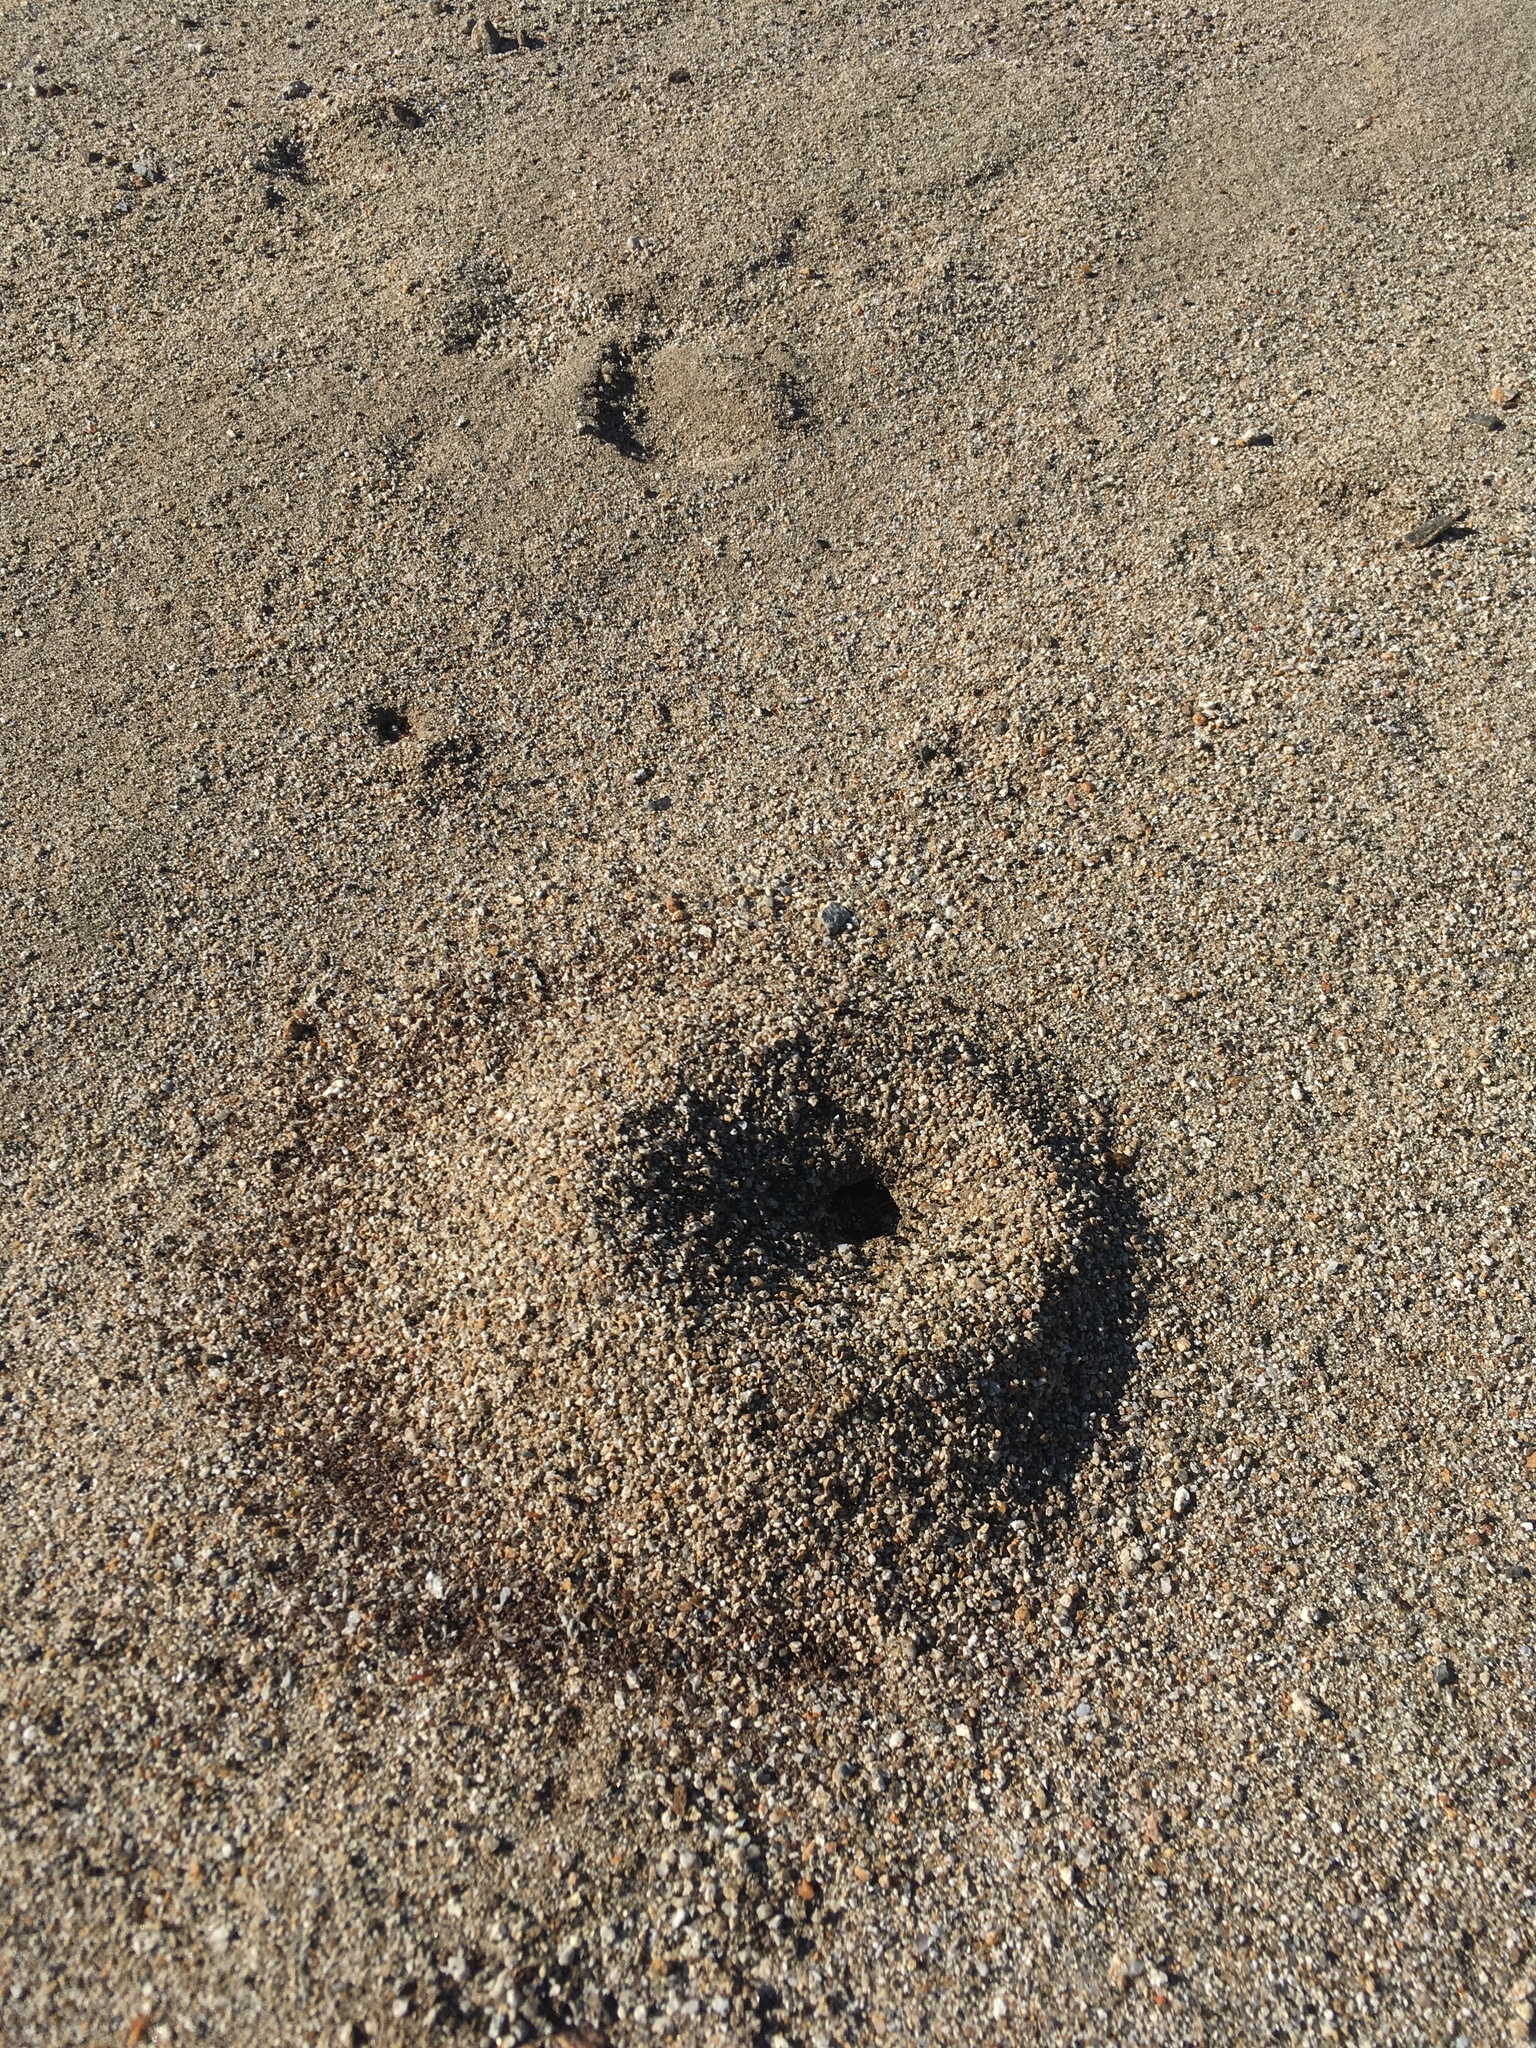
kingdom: Animalia
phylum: Arthropoda
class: Insecta
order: Hymenoptera
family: Formicidae
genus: Messor
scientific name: Messor pergandei
